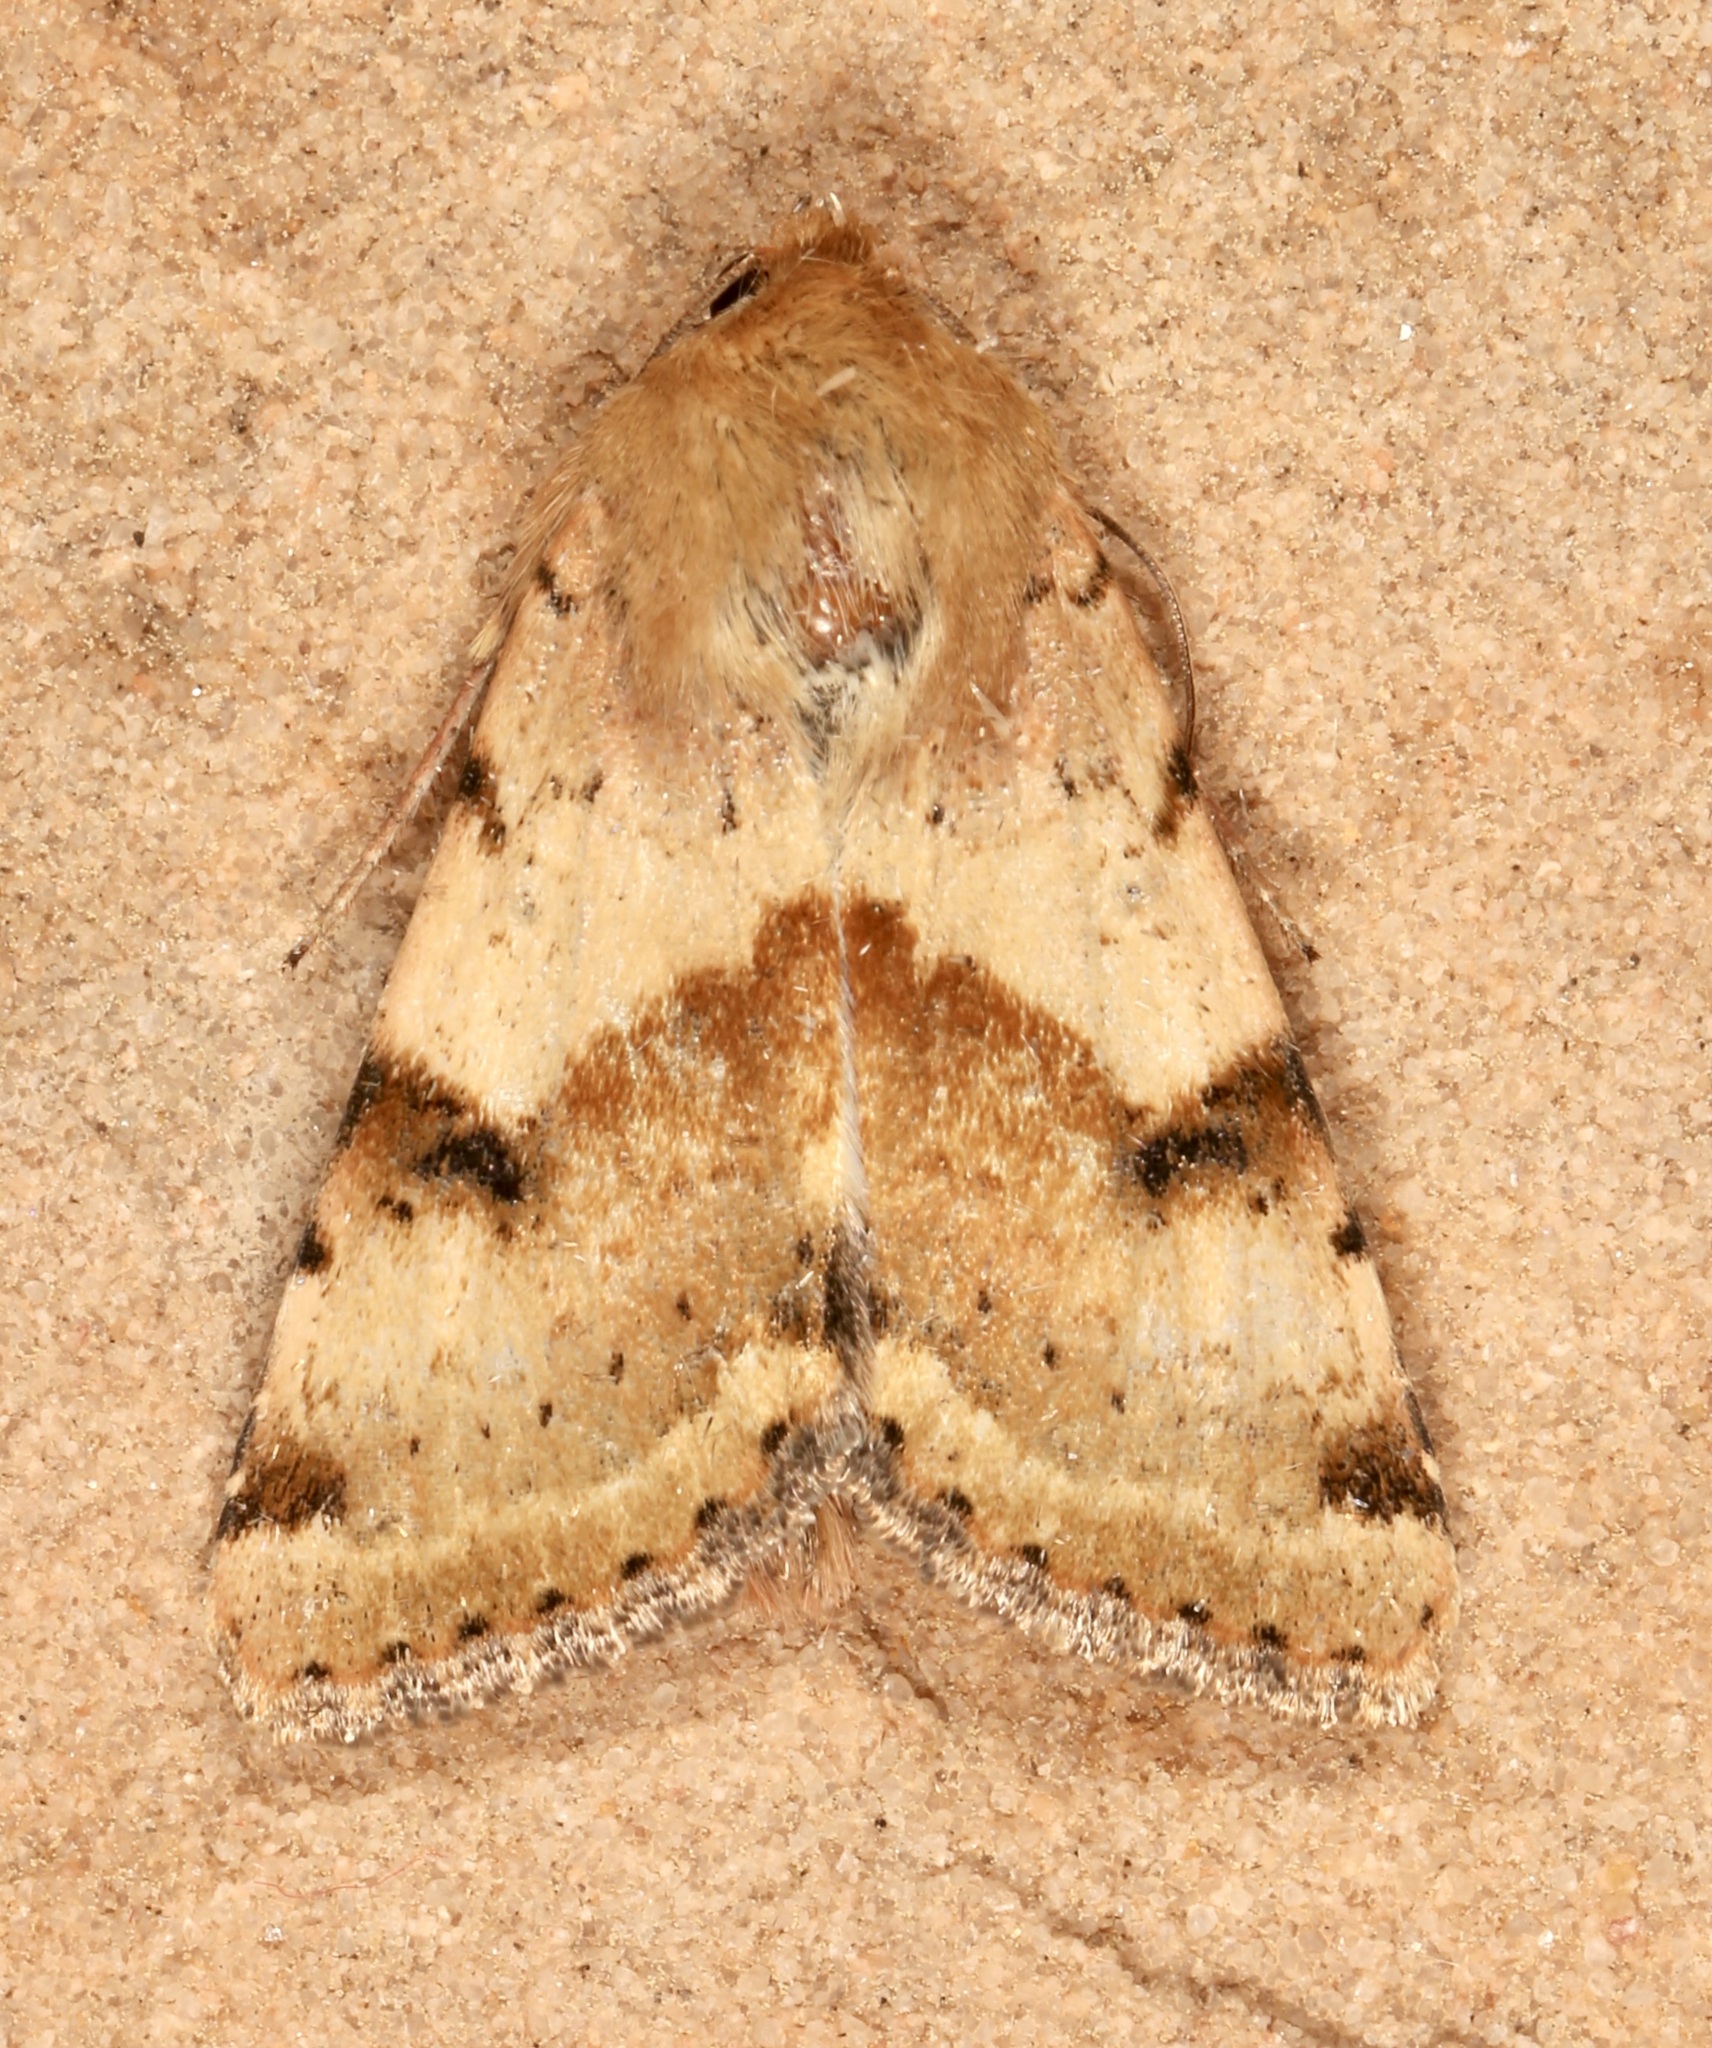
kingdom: Animalia
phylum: Arthropoda
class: Insecta
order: Lepidoptera
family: Noctuidae
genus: Heliothis
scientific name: Heliothis phloxiphaga
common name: Darker spotted straw moth
